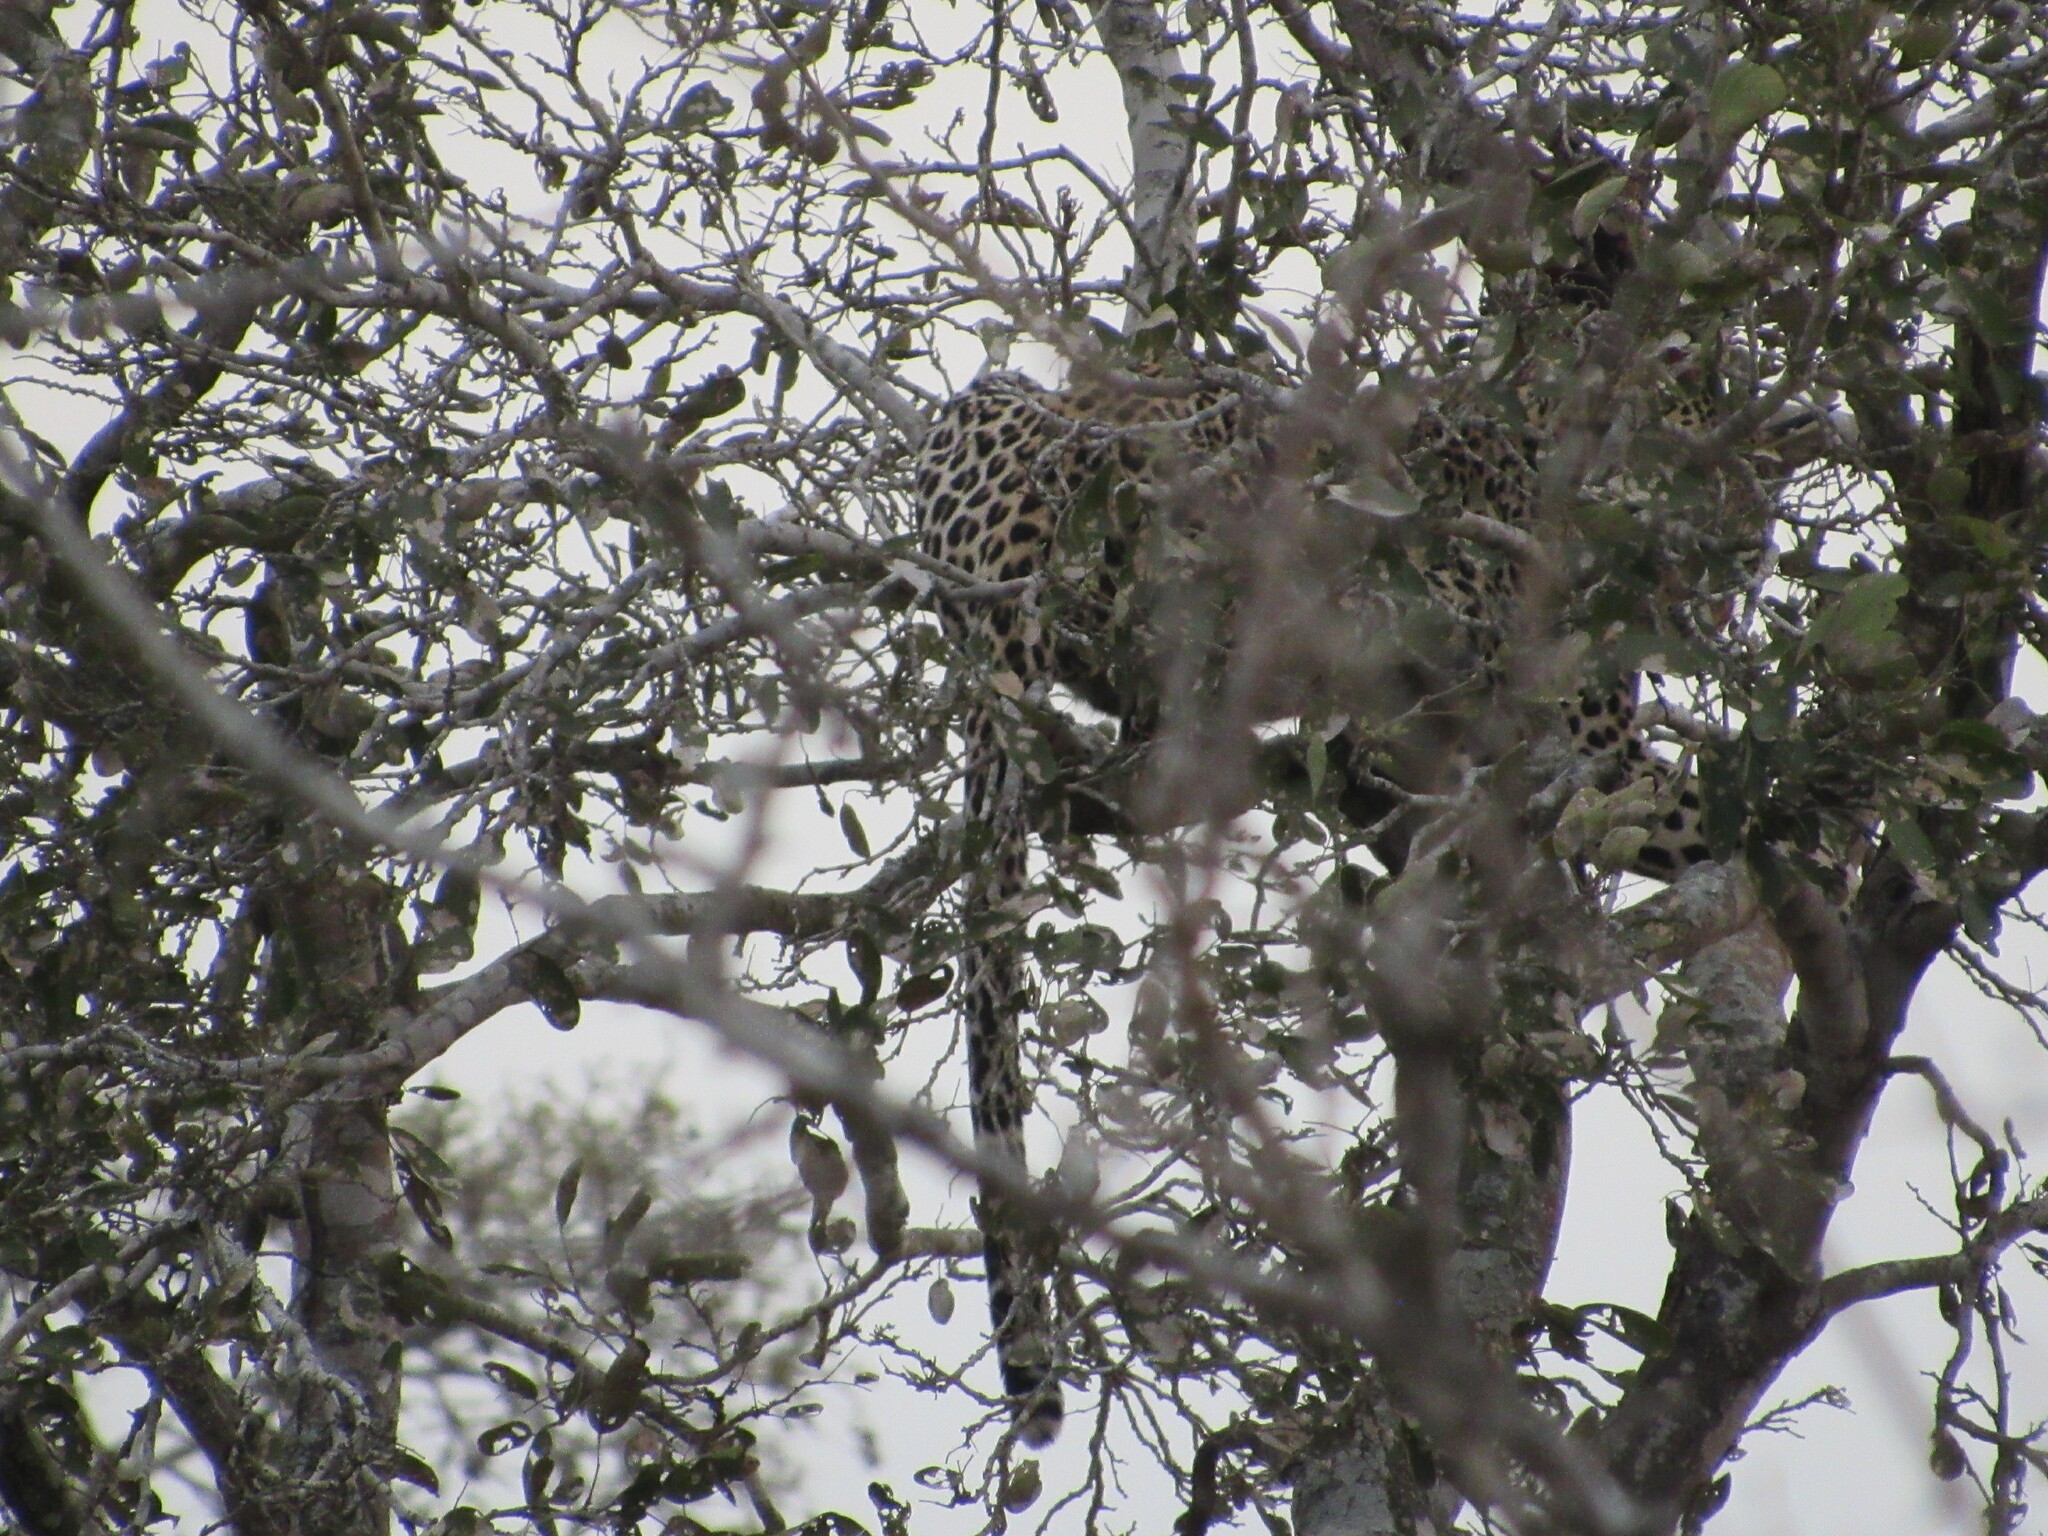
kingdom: Animalia
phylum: Chordata
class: Mammalia
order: Carnivora
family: Felidae
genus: Panthera
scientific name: Panthera pardus
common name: Leopard
